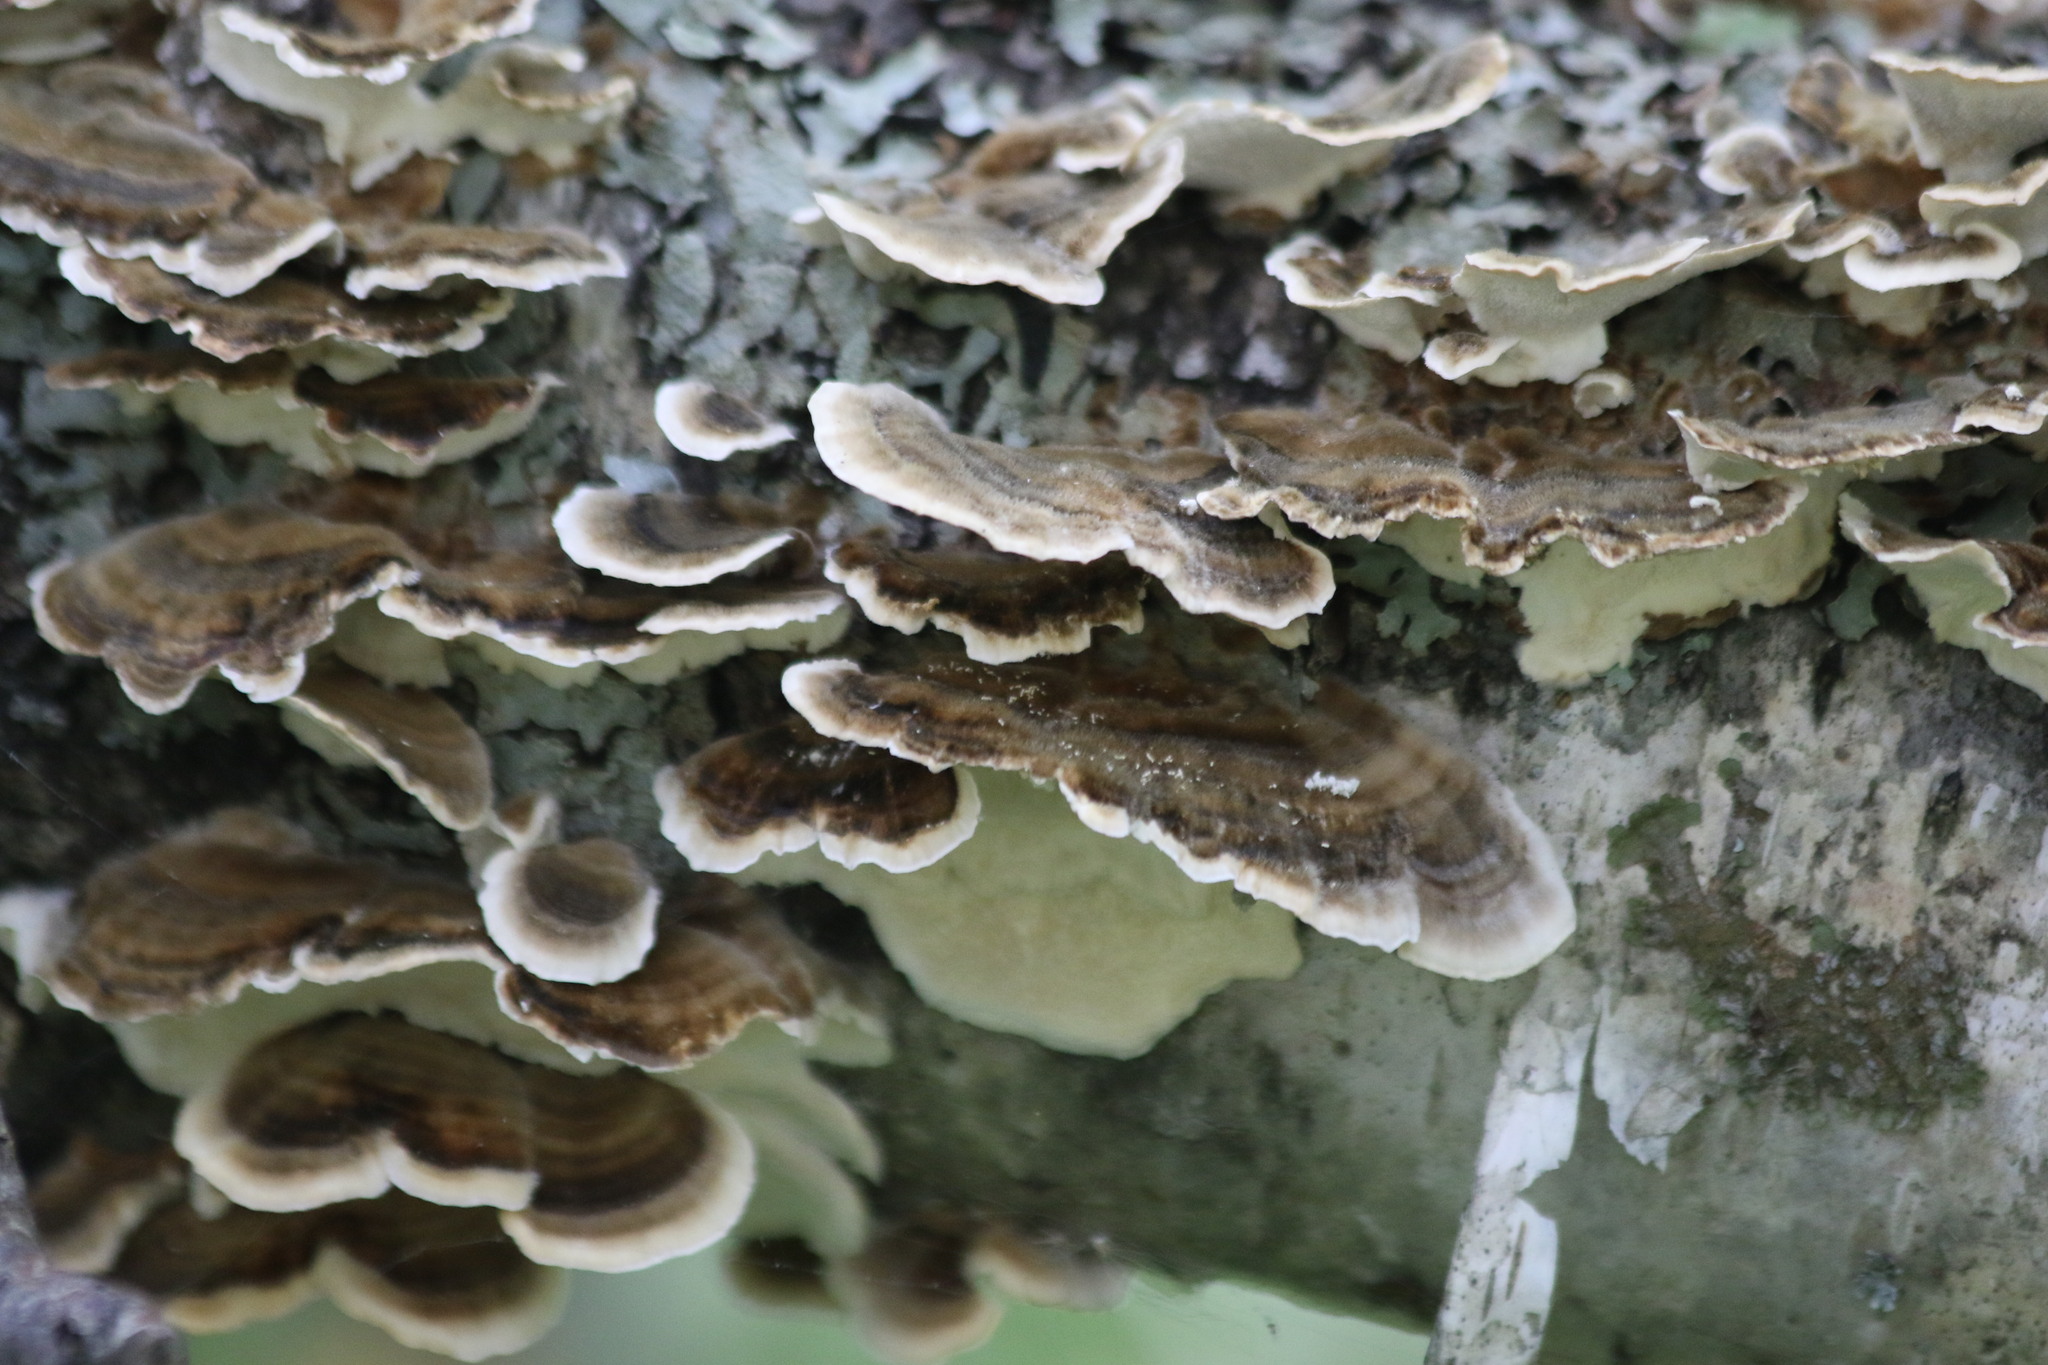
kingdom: Fungi
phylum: Basidiomycota
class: Agaricomycetes
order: Polyporales
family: Polyporaceae
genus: Trametes
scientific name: Trametes versicolor
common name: Turkeytail
